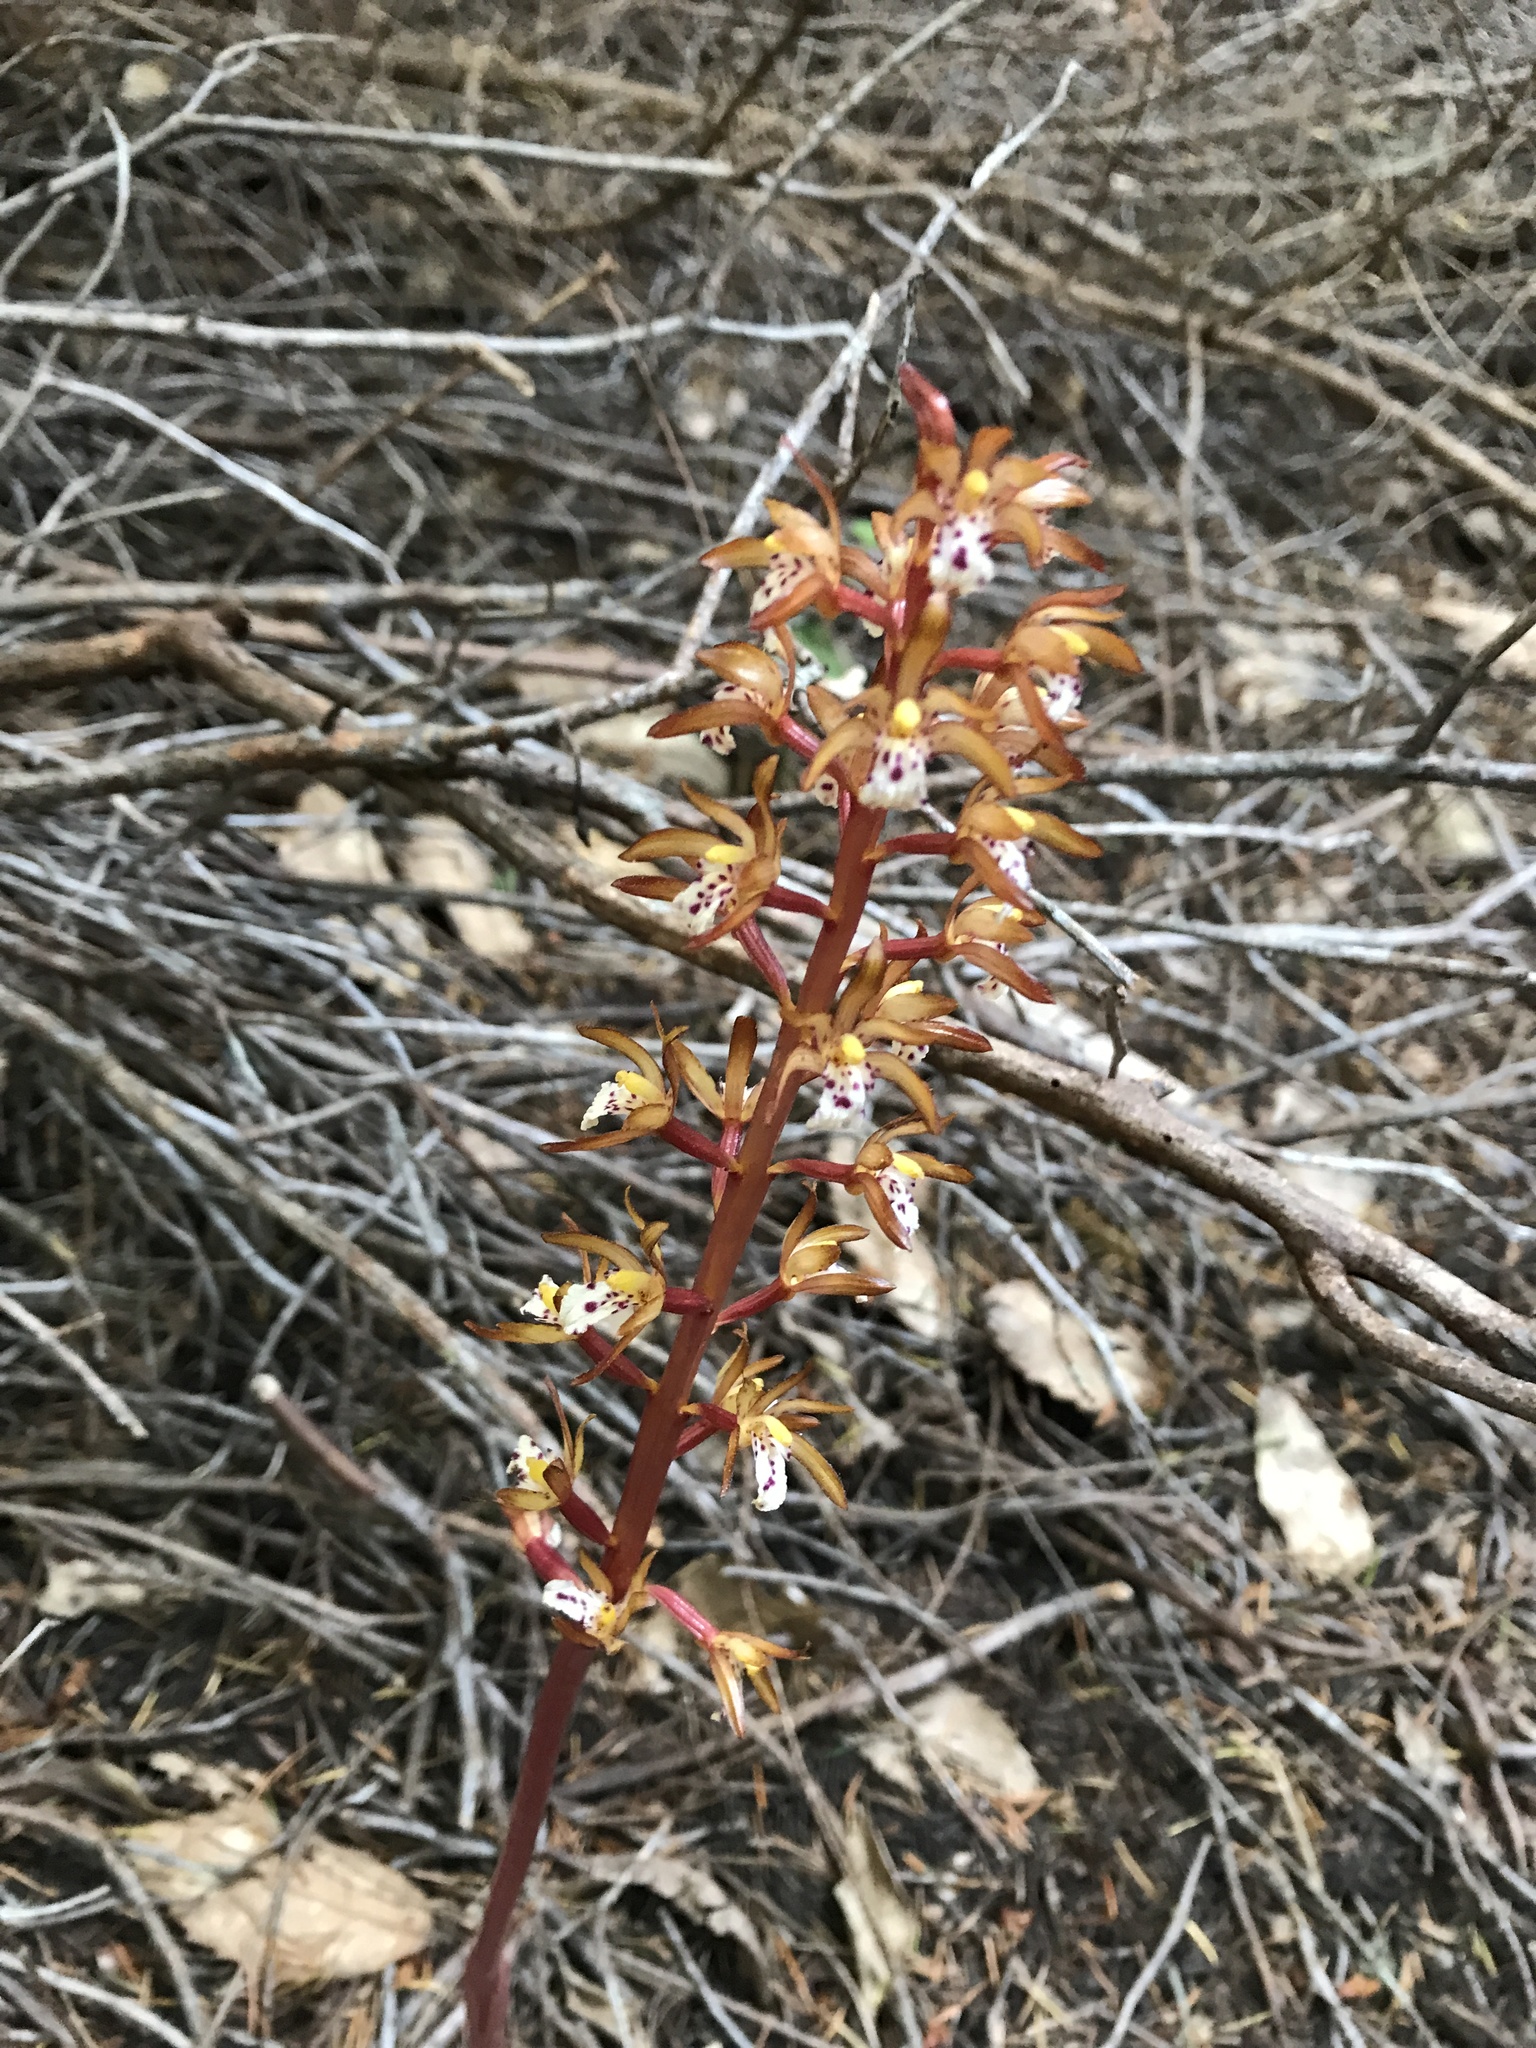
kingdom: Plantae
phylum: Tracheophyta
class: Liliopsida
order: Asparagales
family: Orchidaceae
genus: Corallorhiza
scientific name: Corallorhiza maculata
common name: Spotted coralroot
